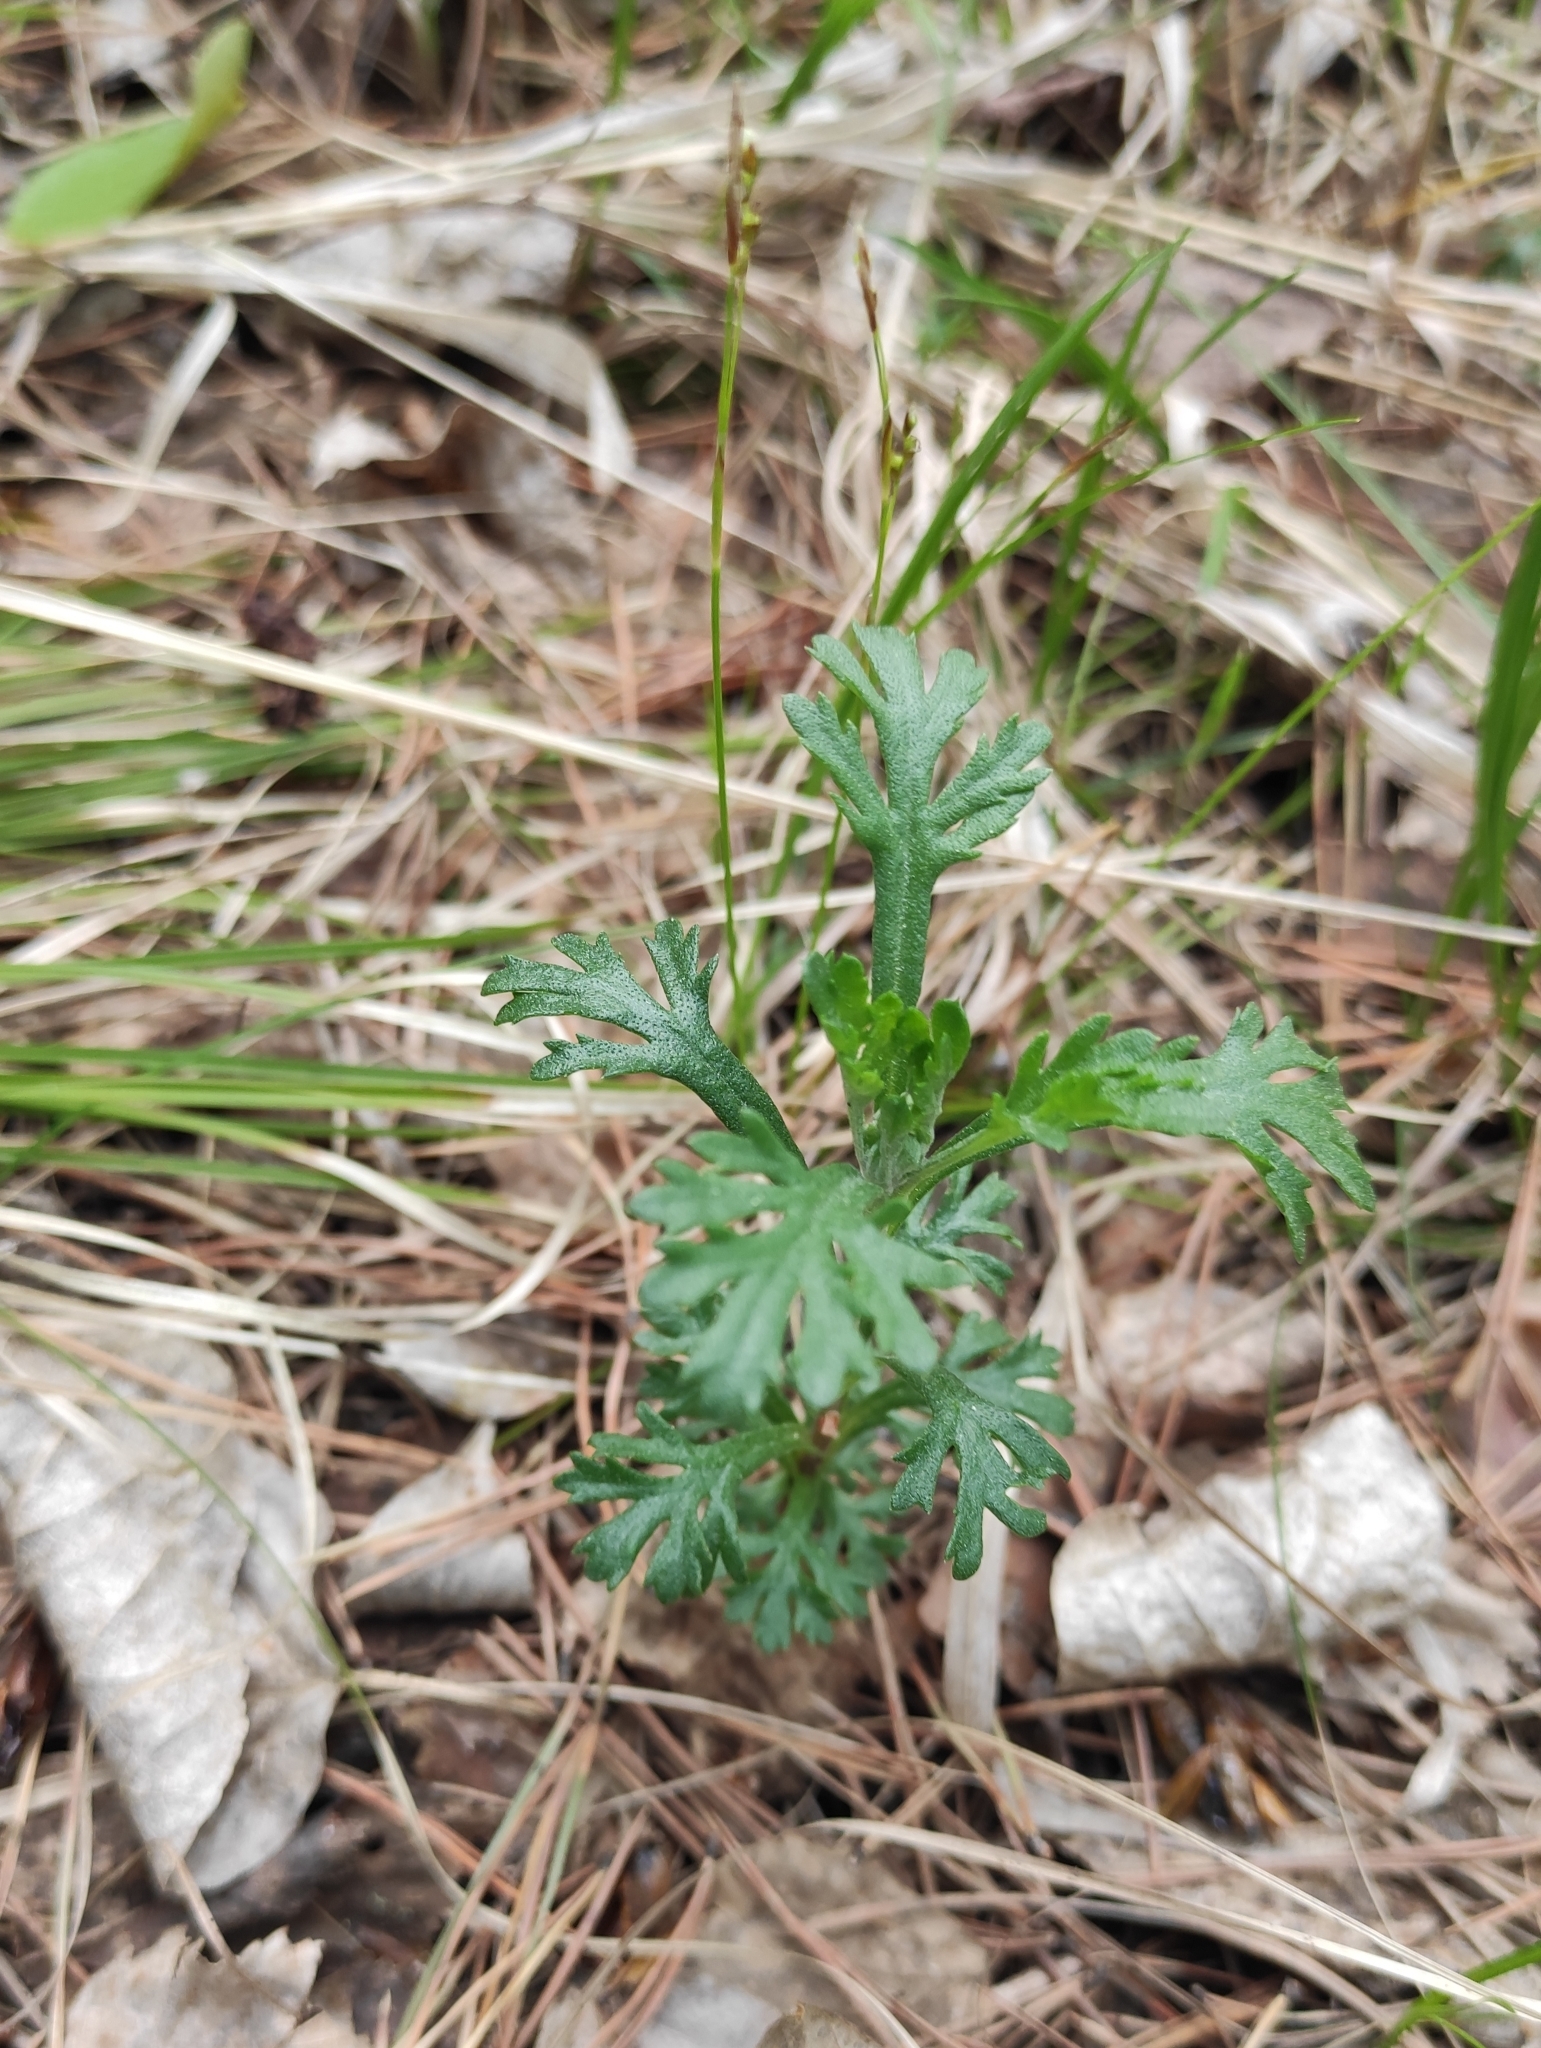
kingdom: Plantae
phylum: Tracheophyta
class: Magnoliopsida
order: Asterales
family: Asteraceae
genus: Chrysanthemum
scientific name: Chrysanthemum zawadzkii
